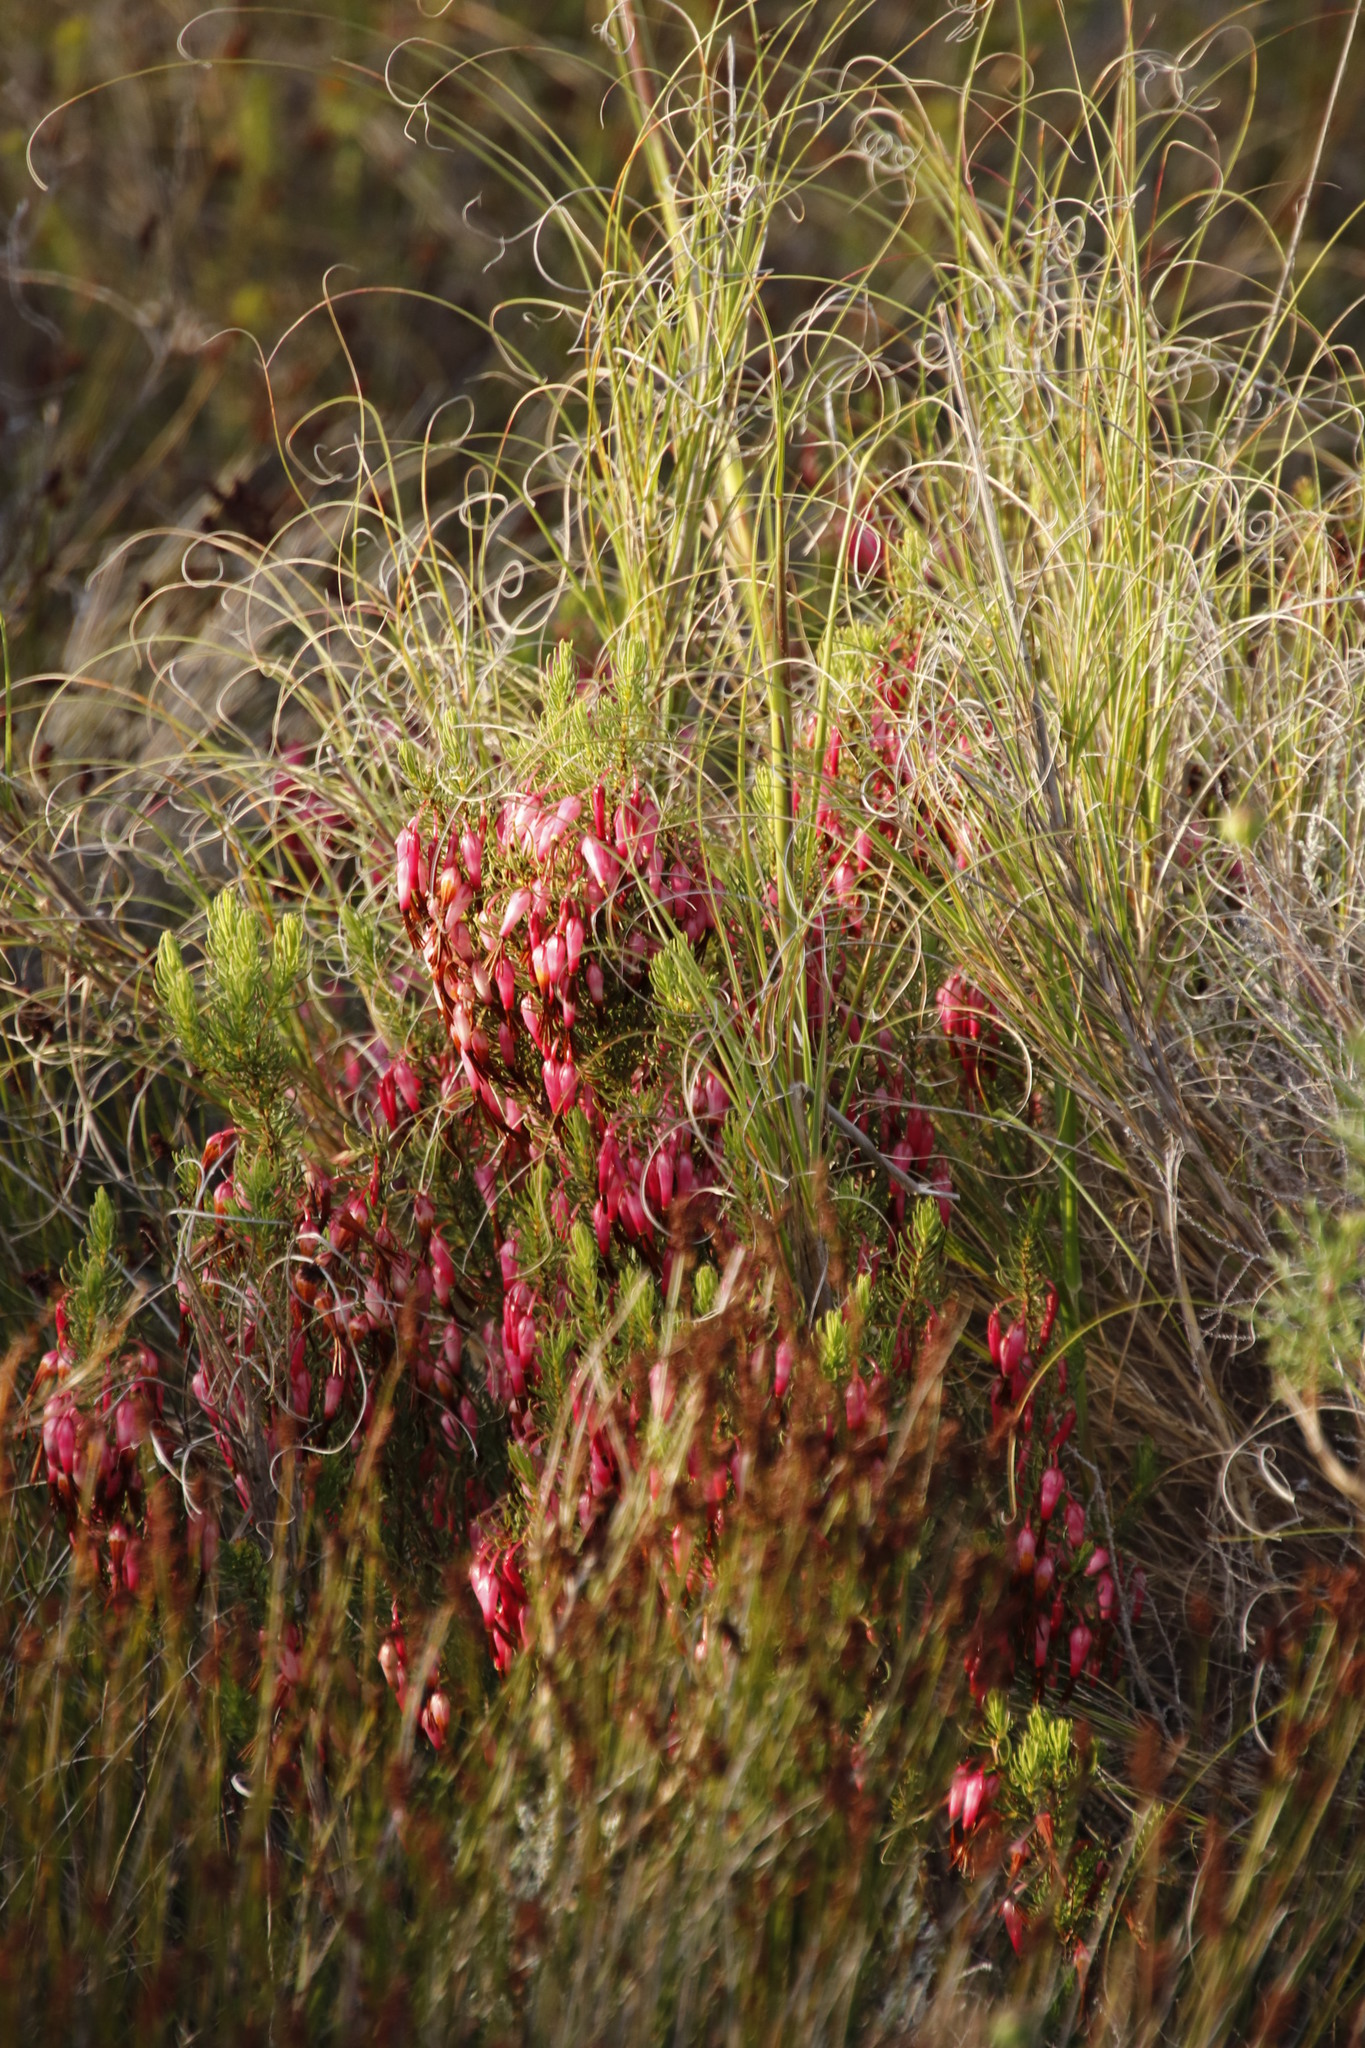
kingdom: Plantae
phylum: Tracheophyta
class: Magnoliopsida
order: Ericales
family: Ericaceae
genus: Erica
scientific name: Erica plukenetii
